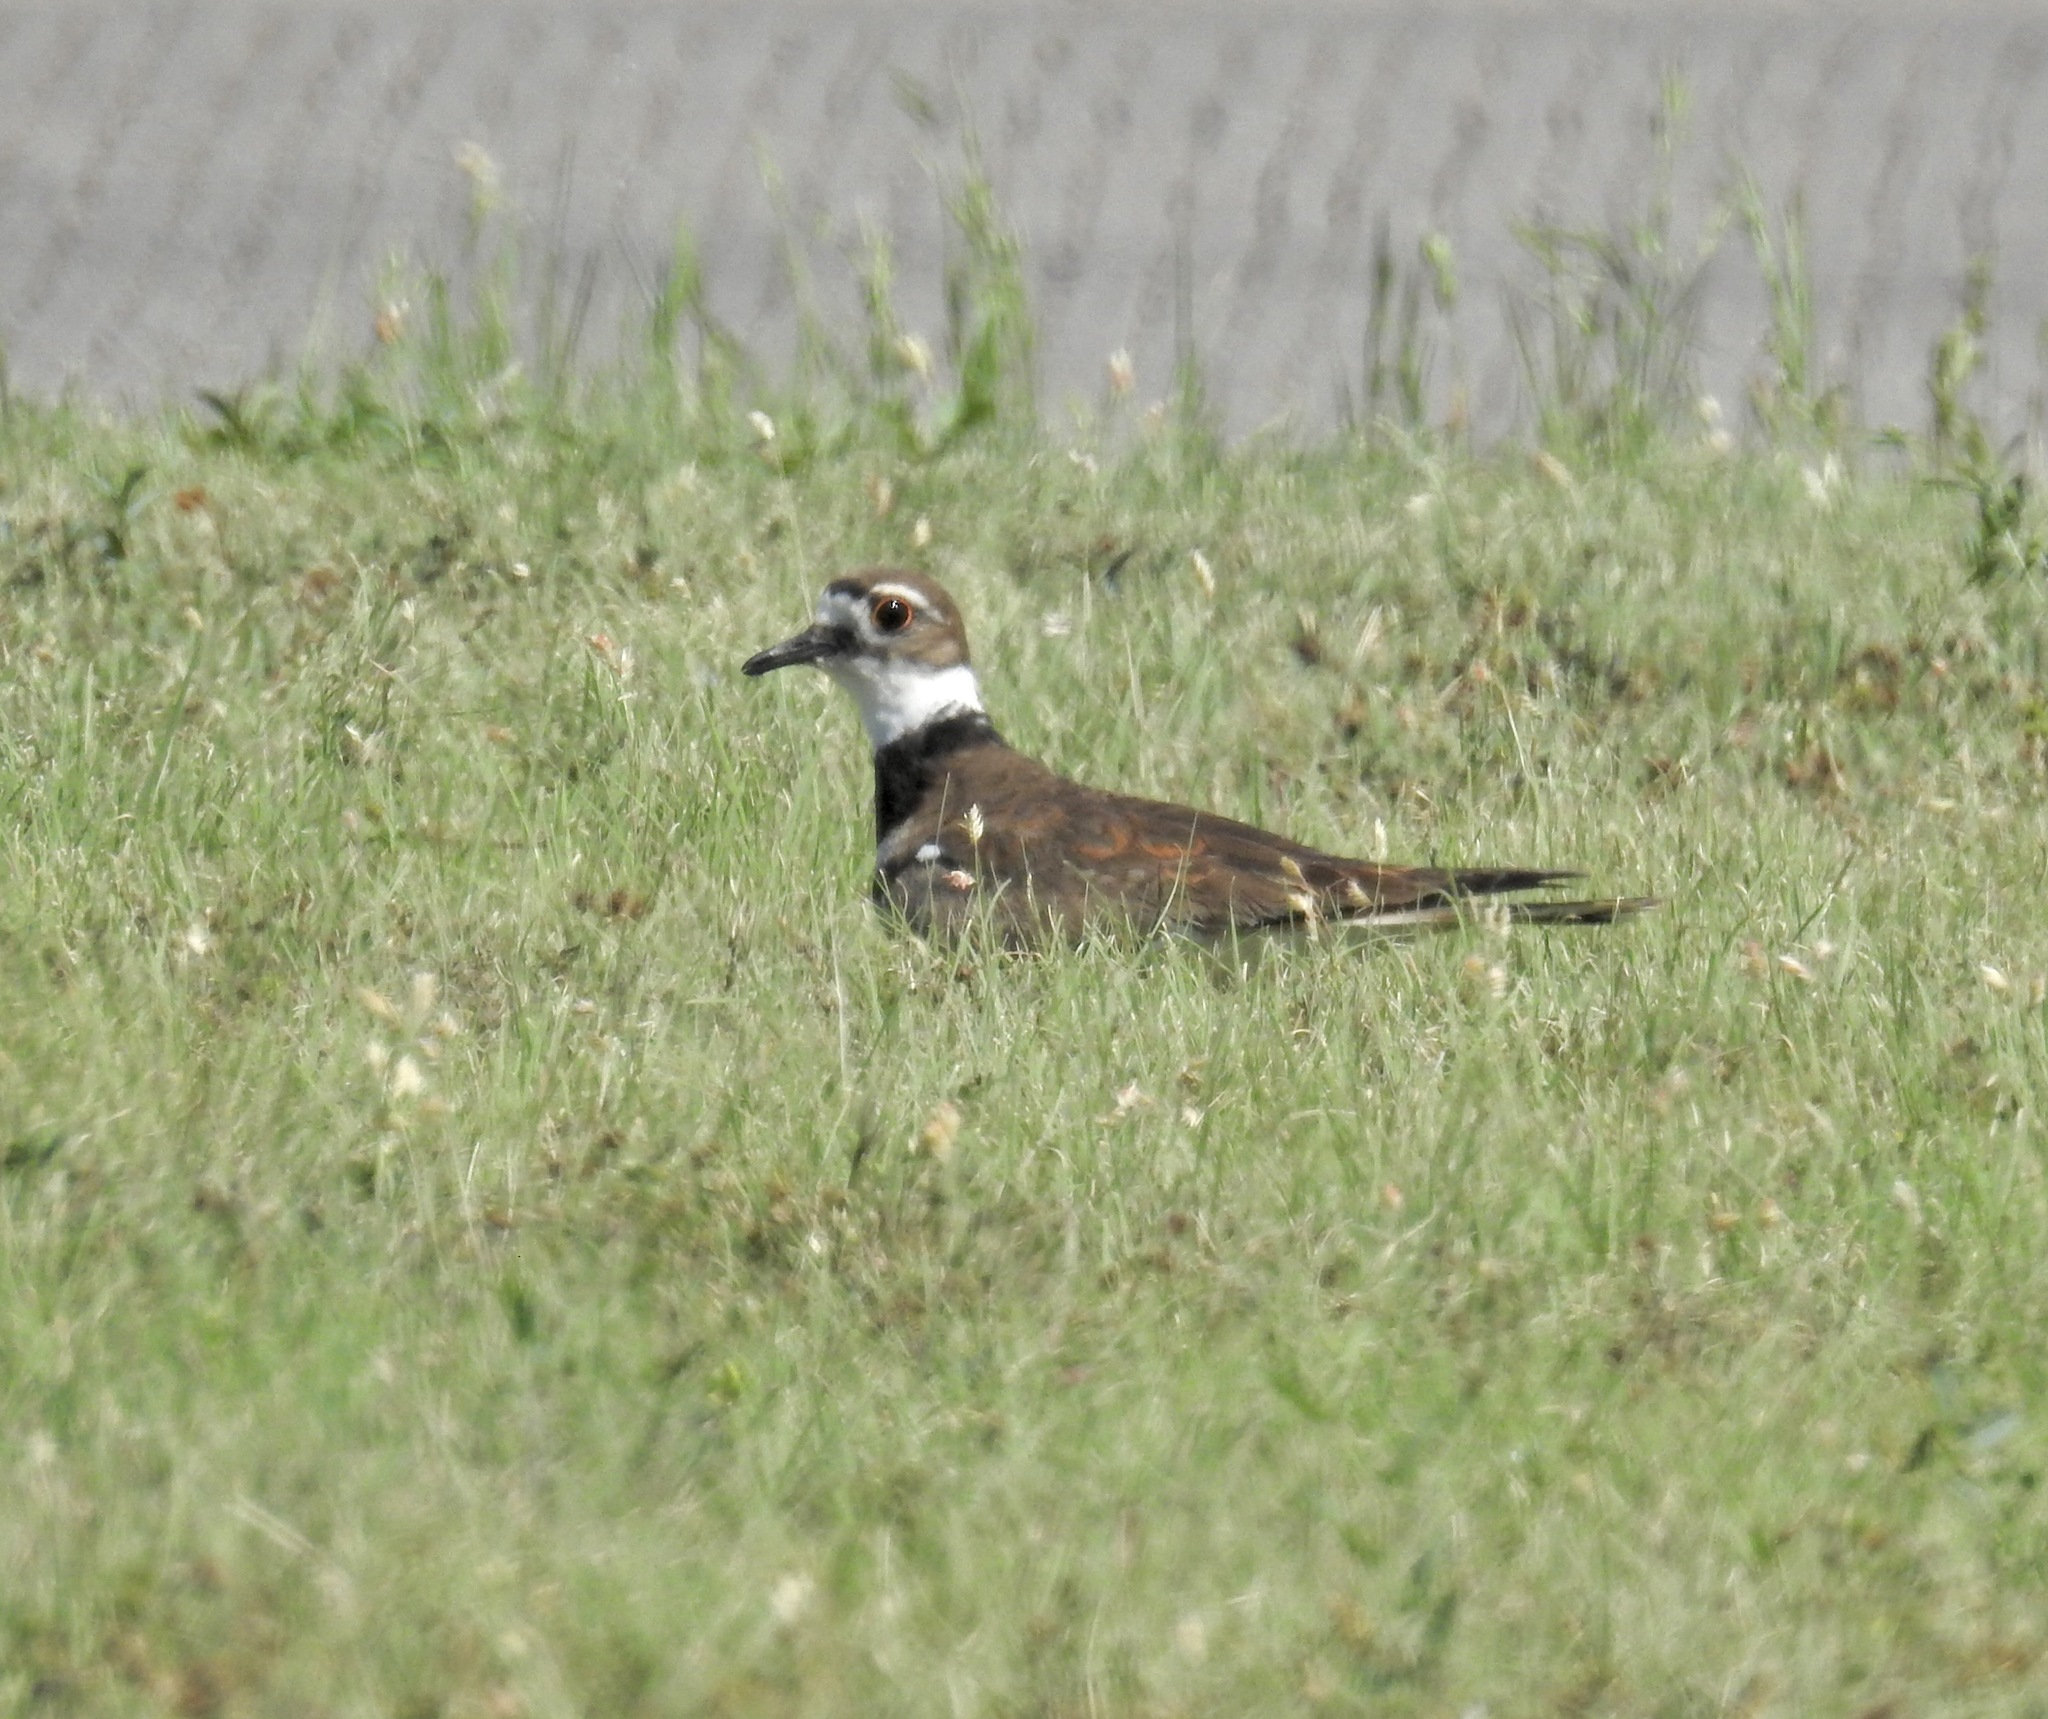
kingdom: Animalia
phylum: Chordata
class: Aves
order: Charadriiformes
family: Charadriidae
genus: Charadrius
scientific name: Charadrius vociferus
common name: Killdeer
